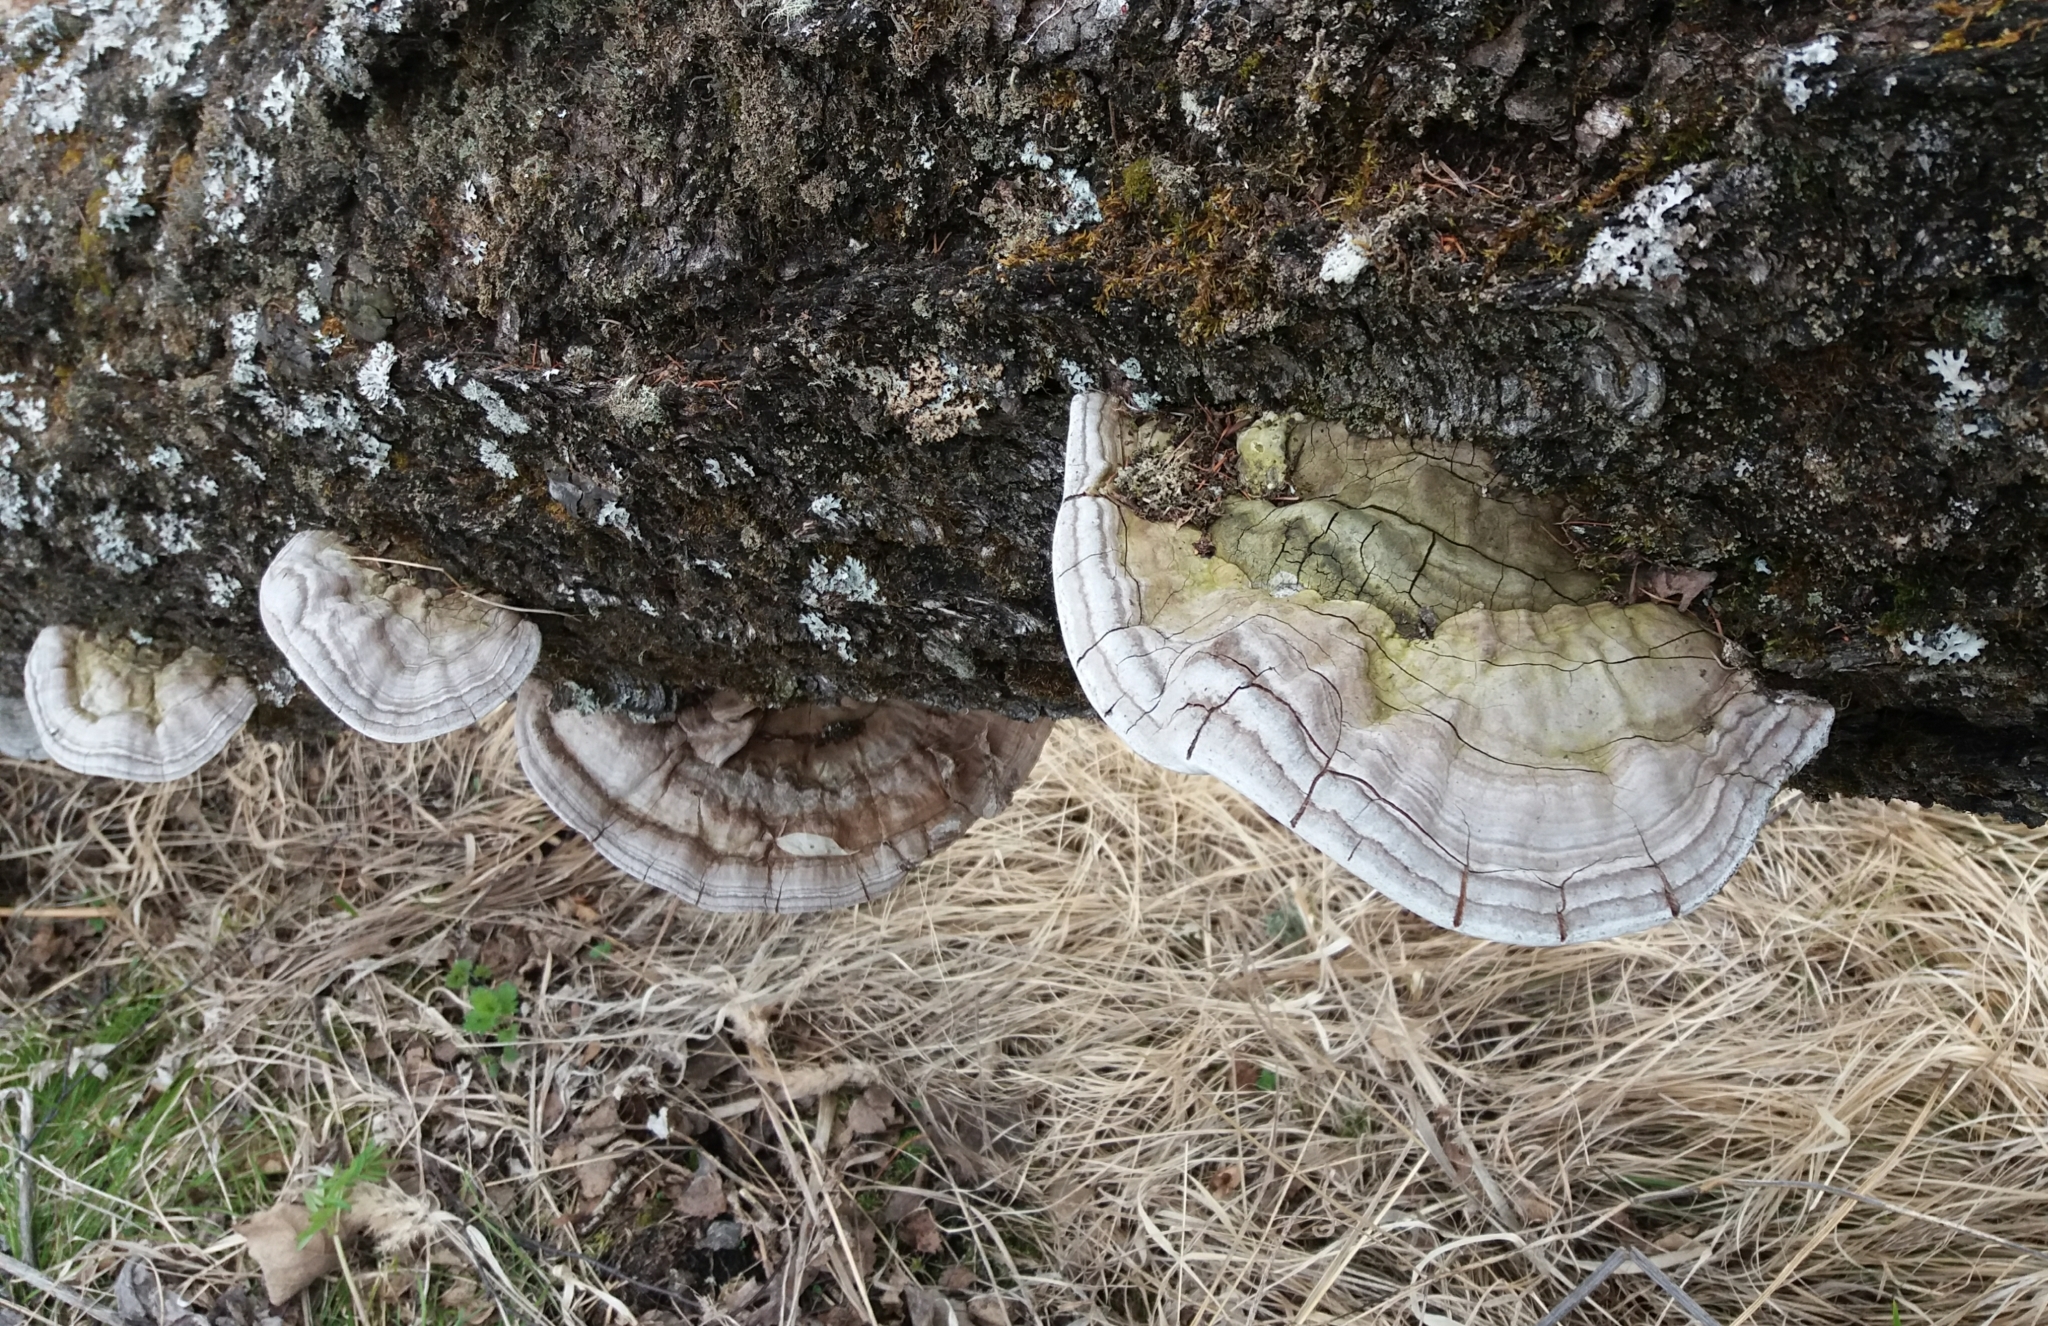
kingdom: Fungi
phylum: Basidiomycota
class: Agaricomycetes
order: Polyporales
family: Polyporaceae
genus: Ganoderma
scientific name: Ganoderma applanatum
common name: Artist's bracket
